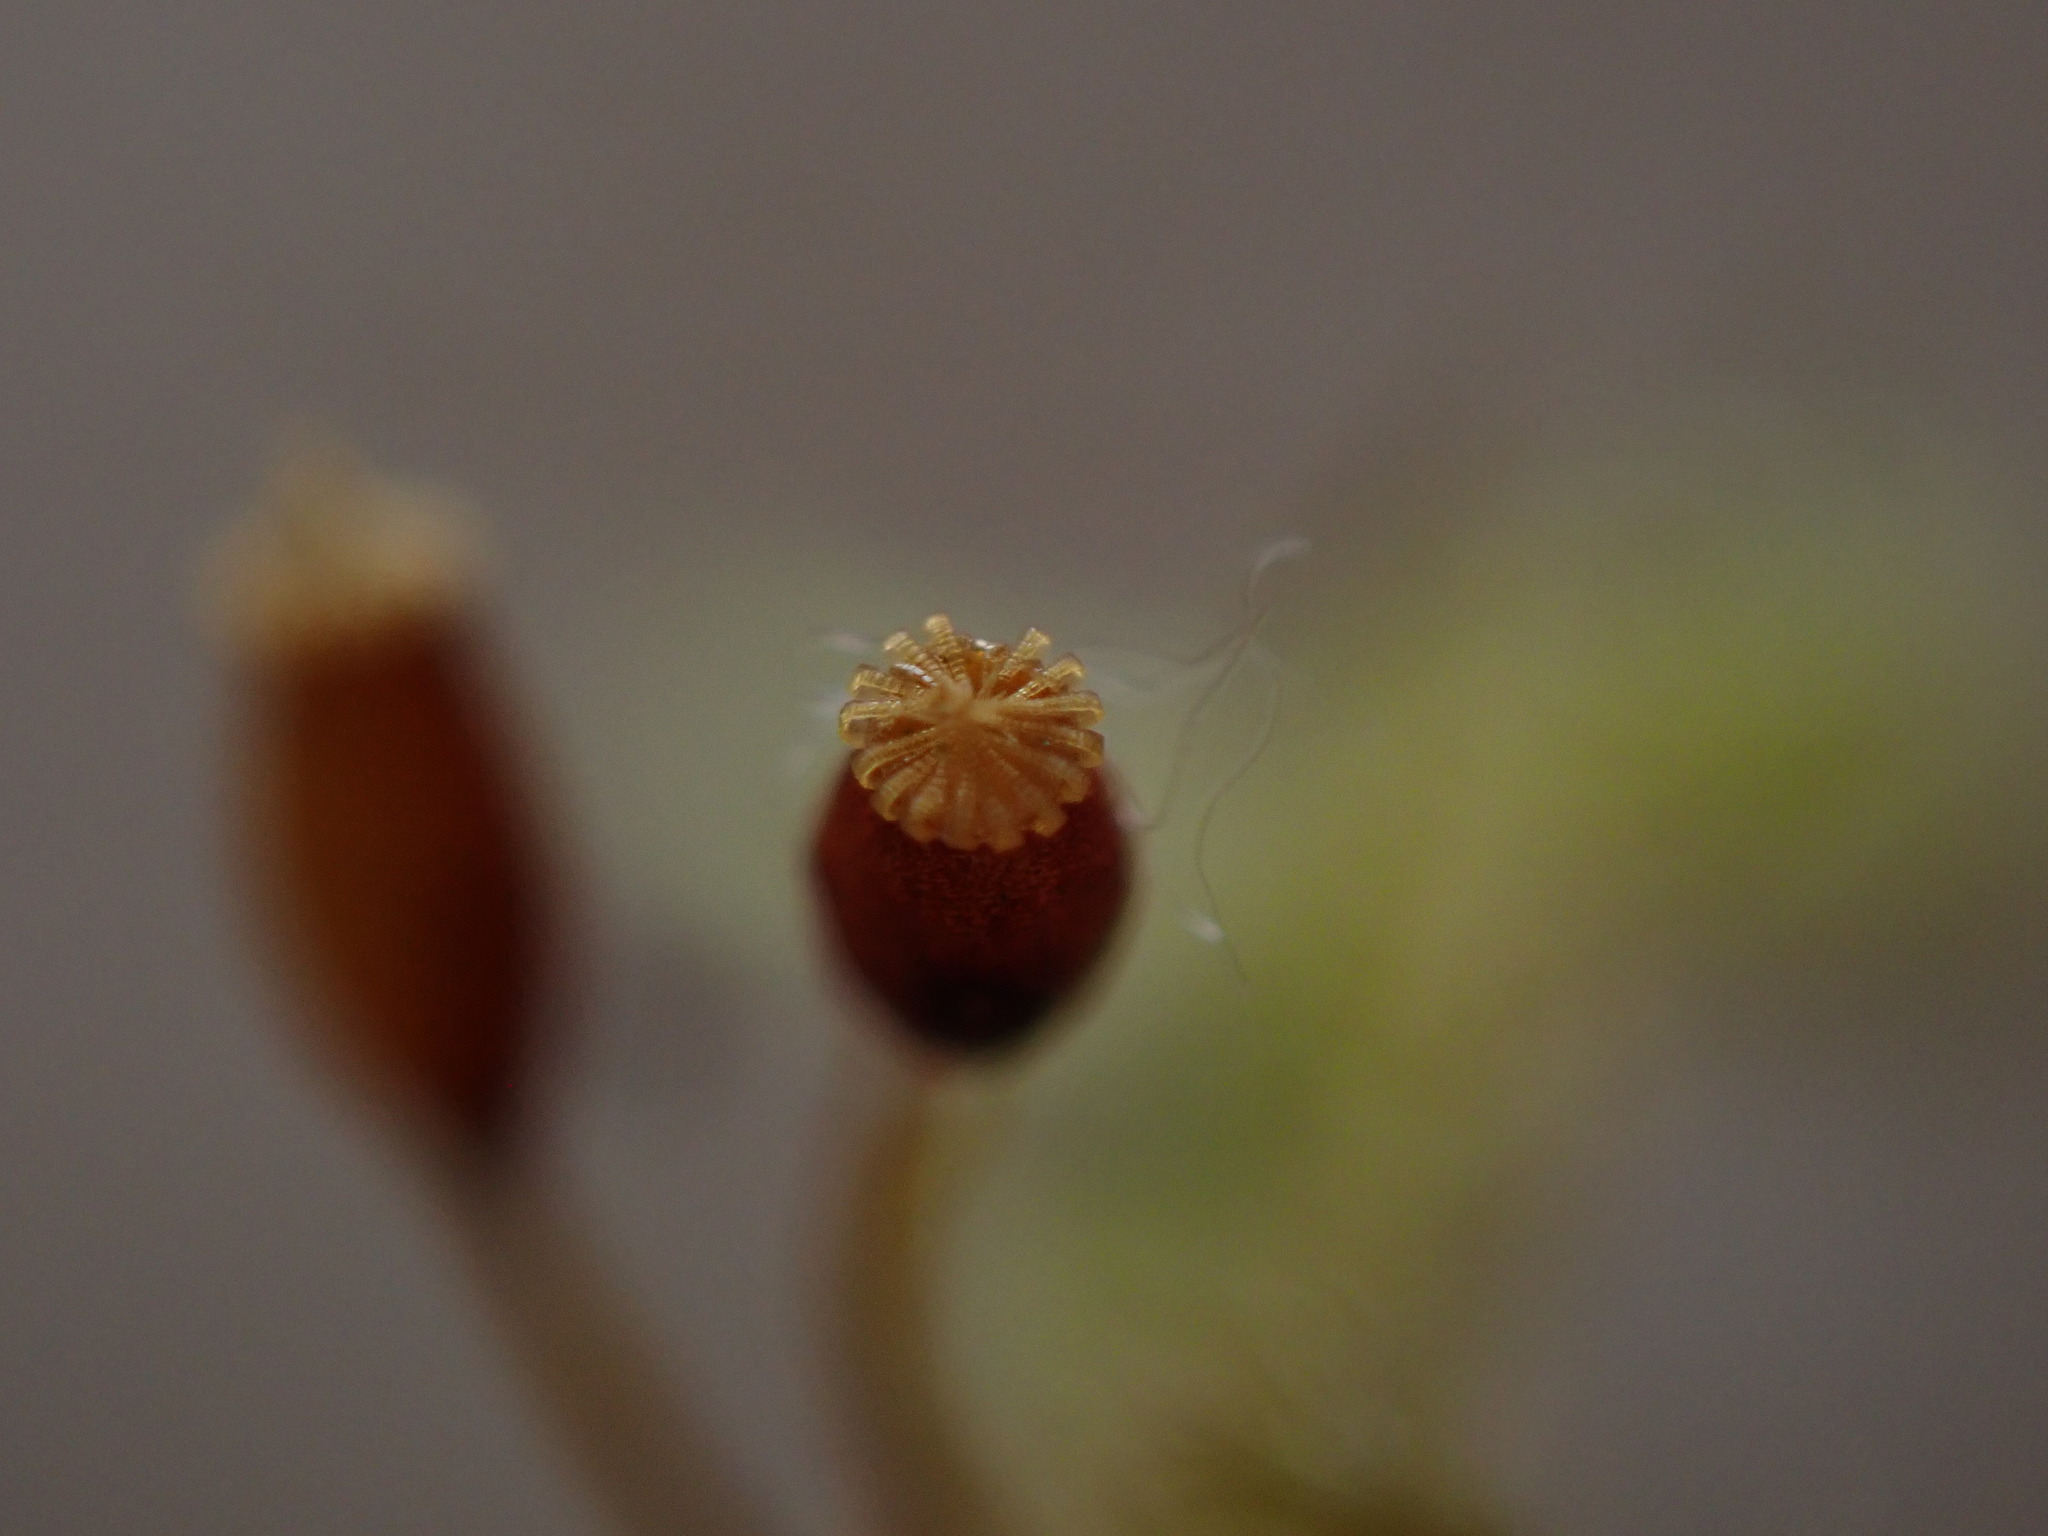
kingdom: Plantae
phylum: Bryophyta
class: Bryopsida
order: Hypnales
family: Neckeraceae
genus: Neckera
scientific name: Neckera douglasii
